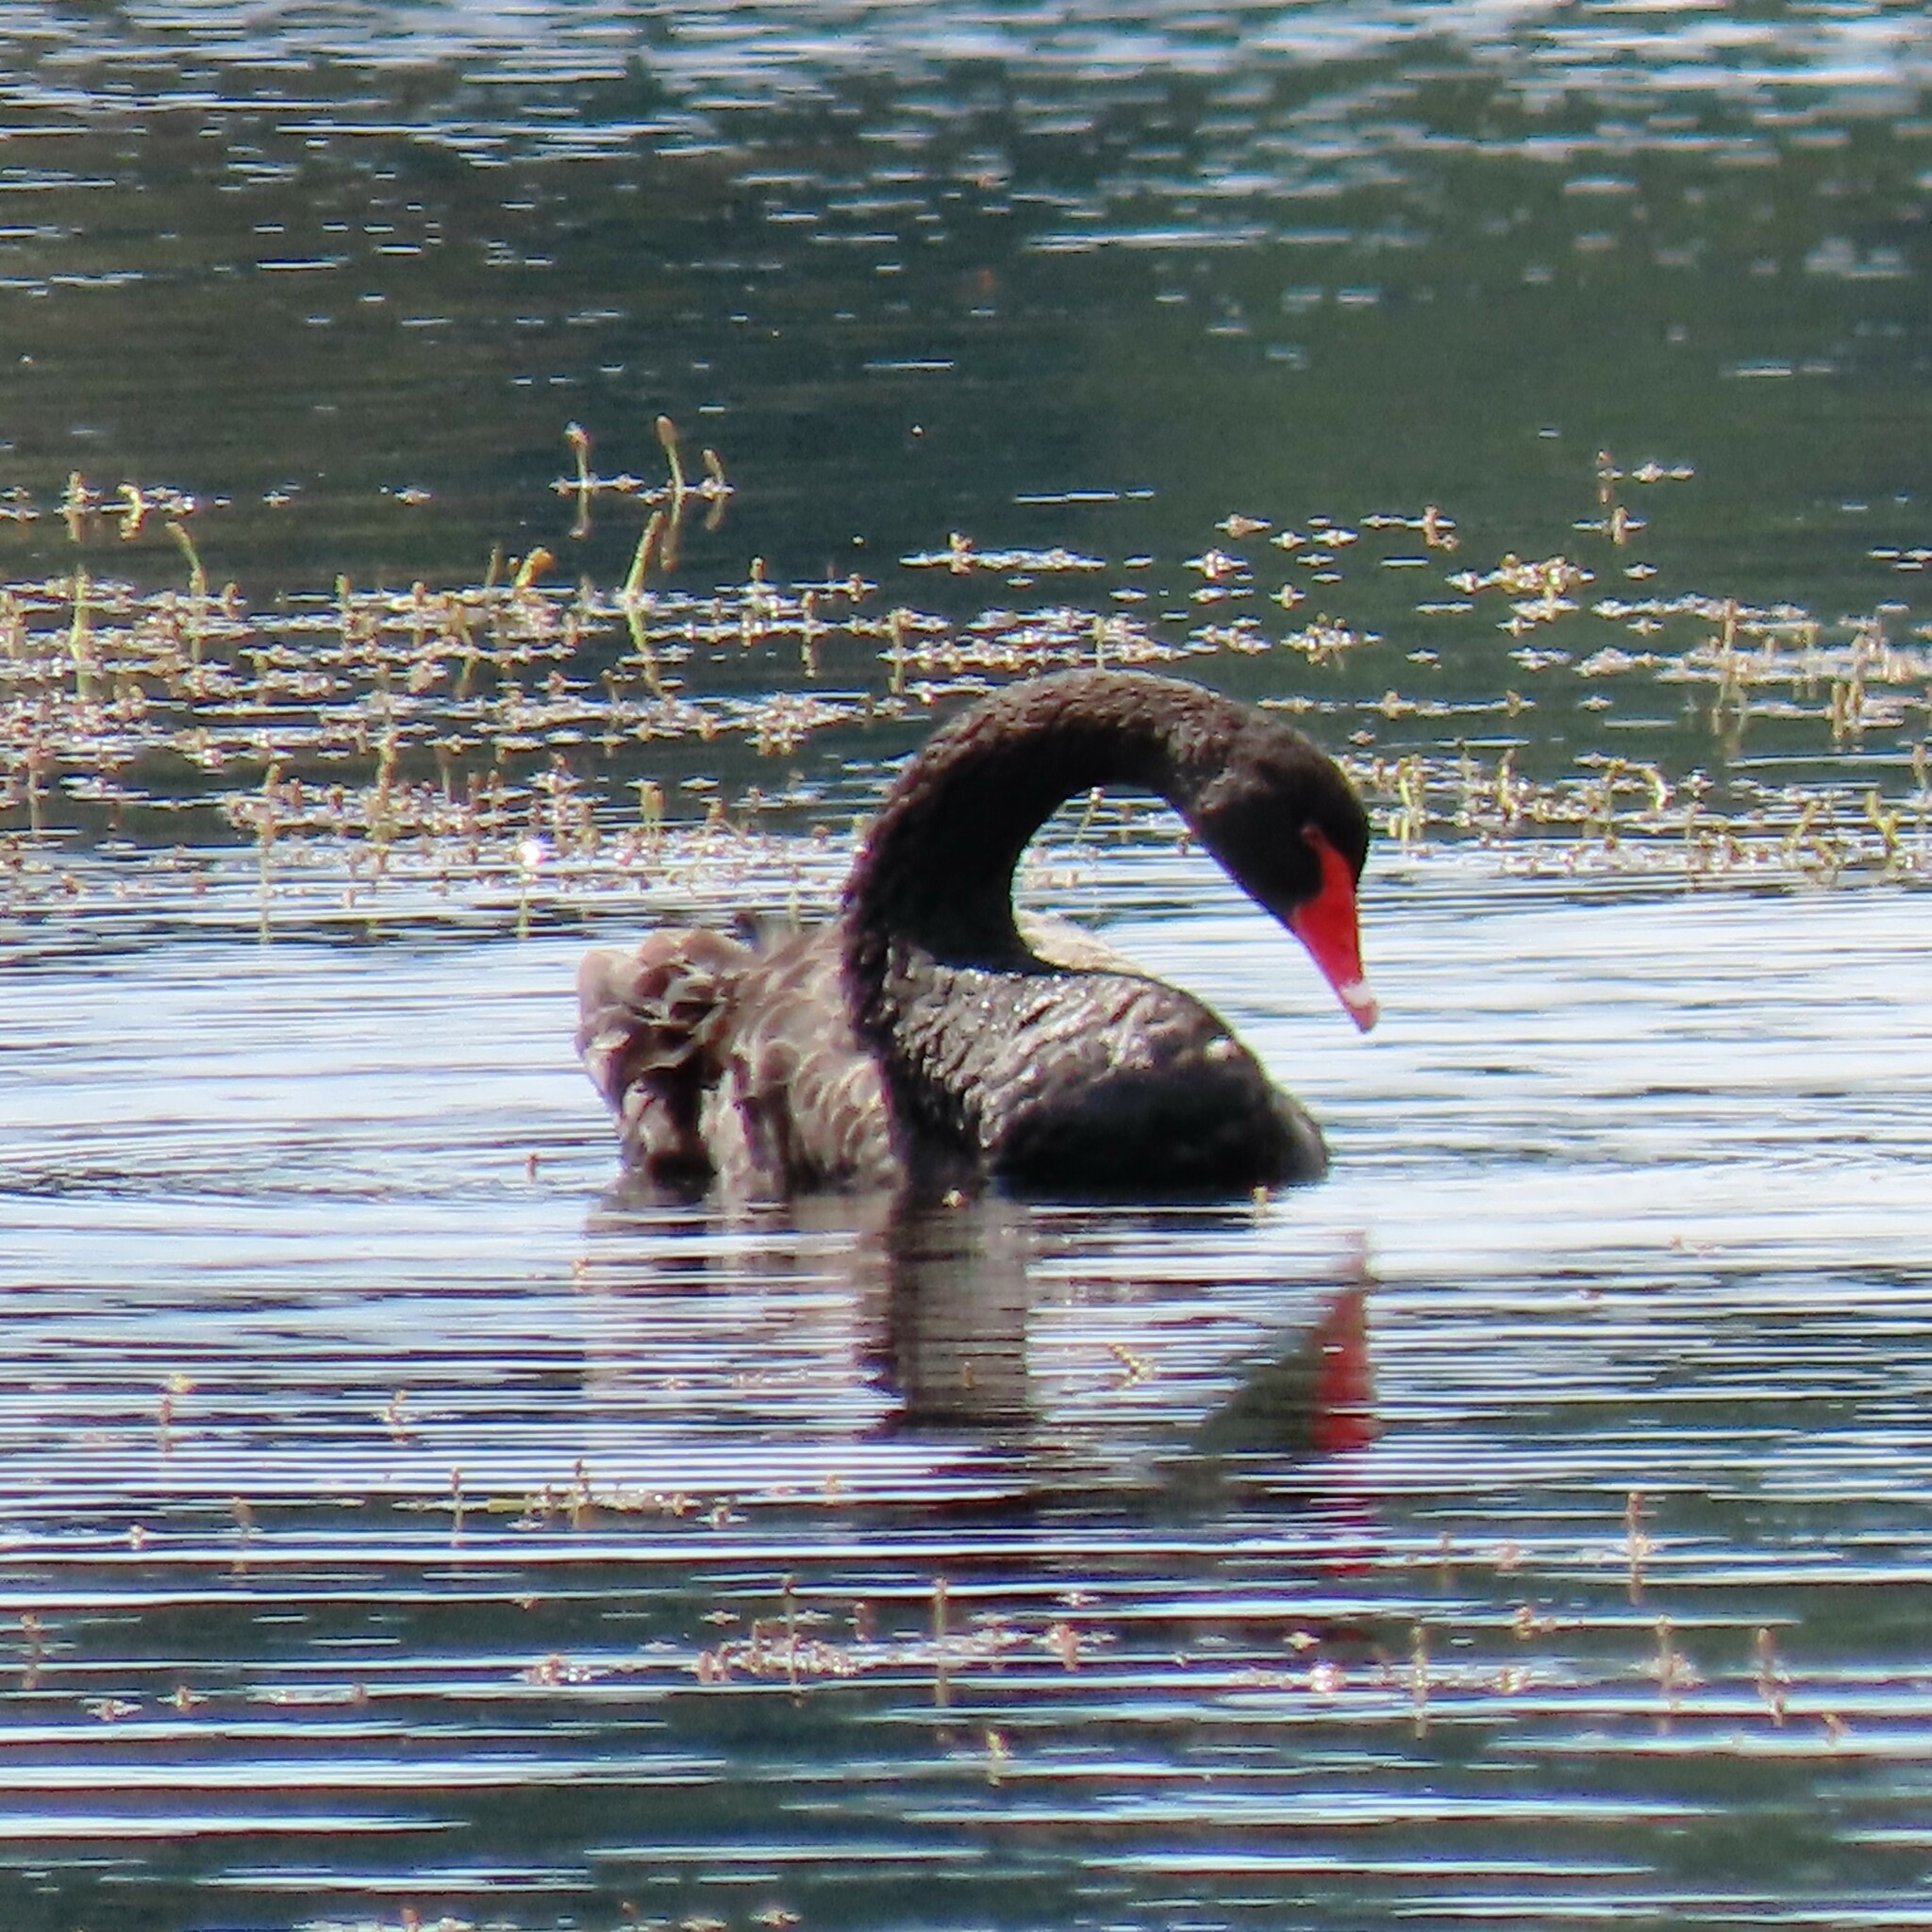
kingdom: Animalia
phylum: Chordata
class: Aves
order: Anseriformes
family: Anatidae
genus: Cygnus
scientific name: Cygnus atratus
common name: Black swan
